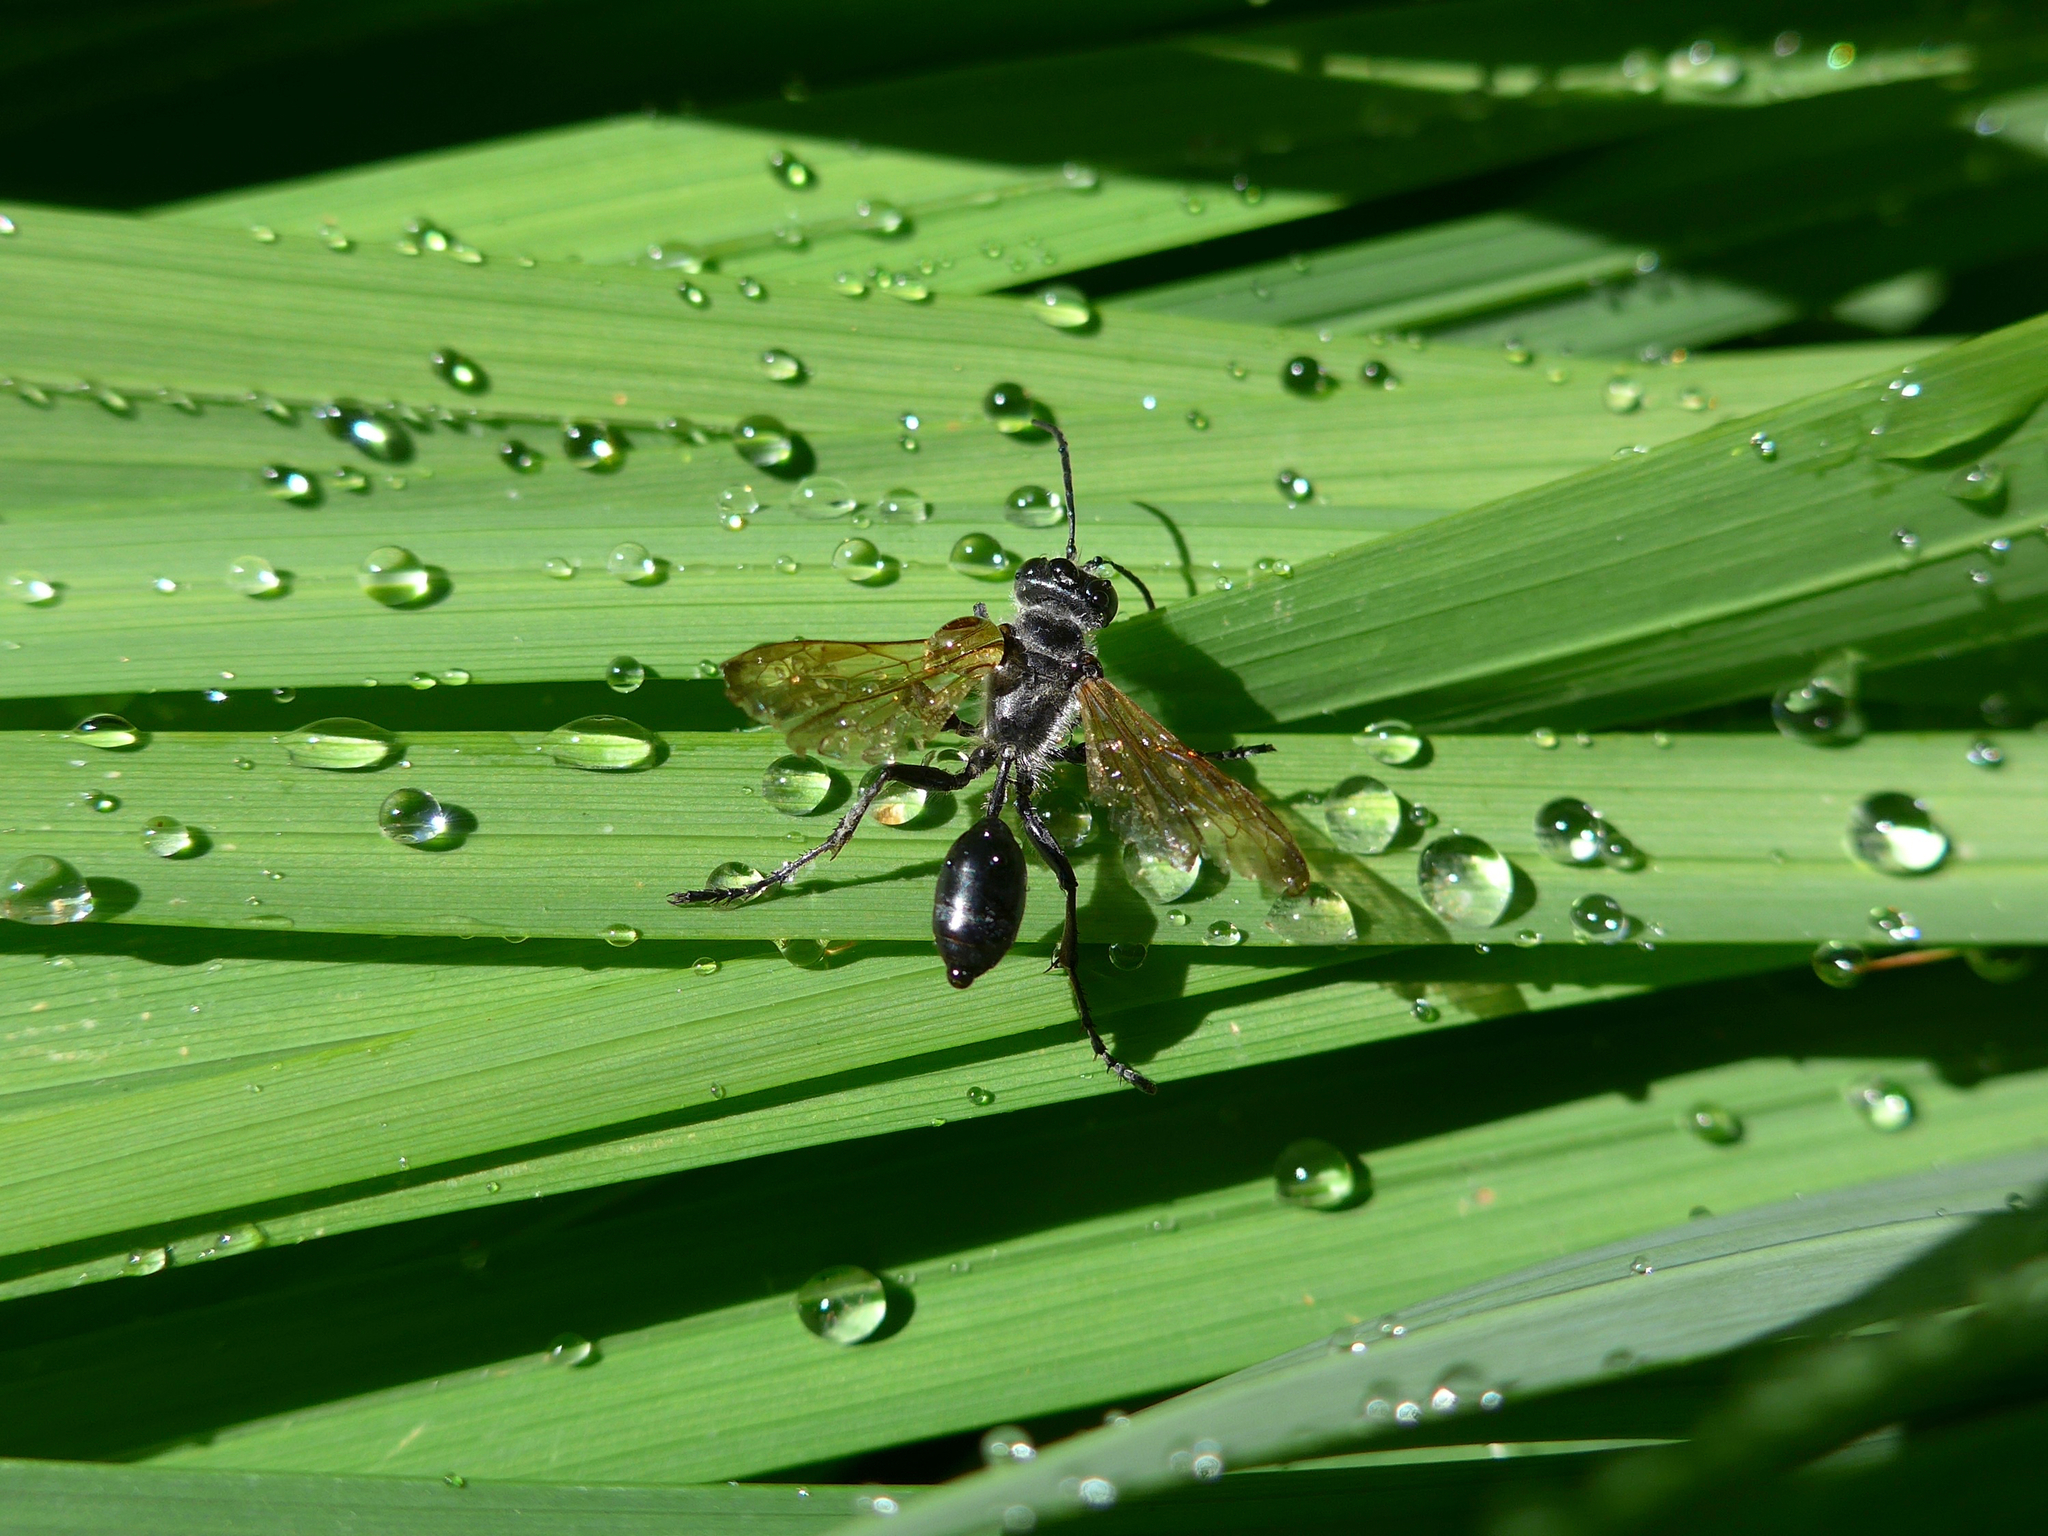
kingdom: Animalia
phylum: Arthropoda
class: Insecta
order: Hymenoptera
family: Sphecidae
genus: Isodontia
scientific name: Isodontia mexicana
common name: Mud dauber
